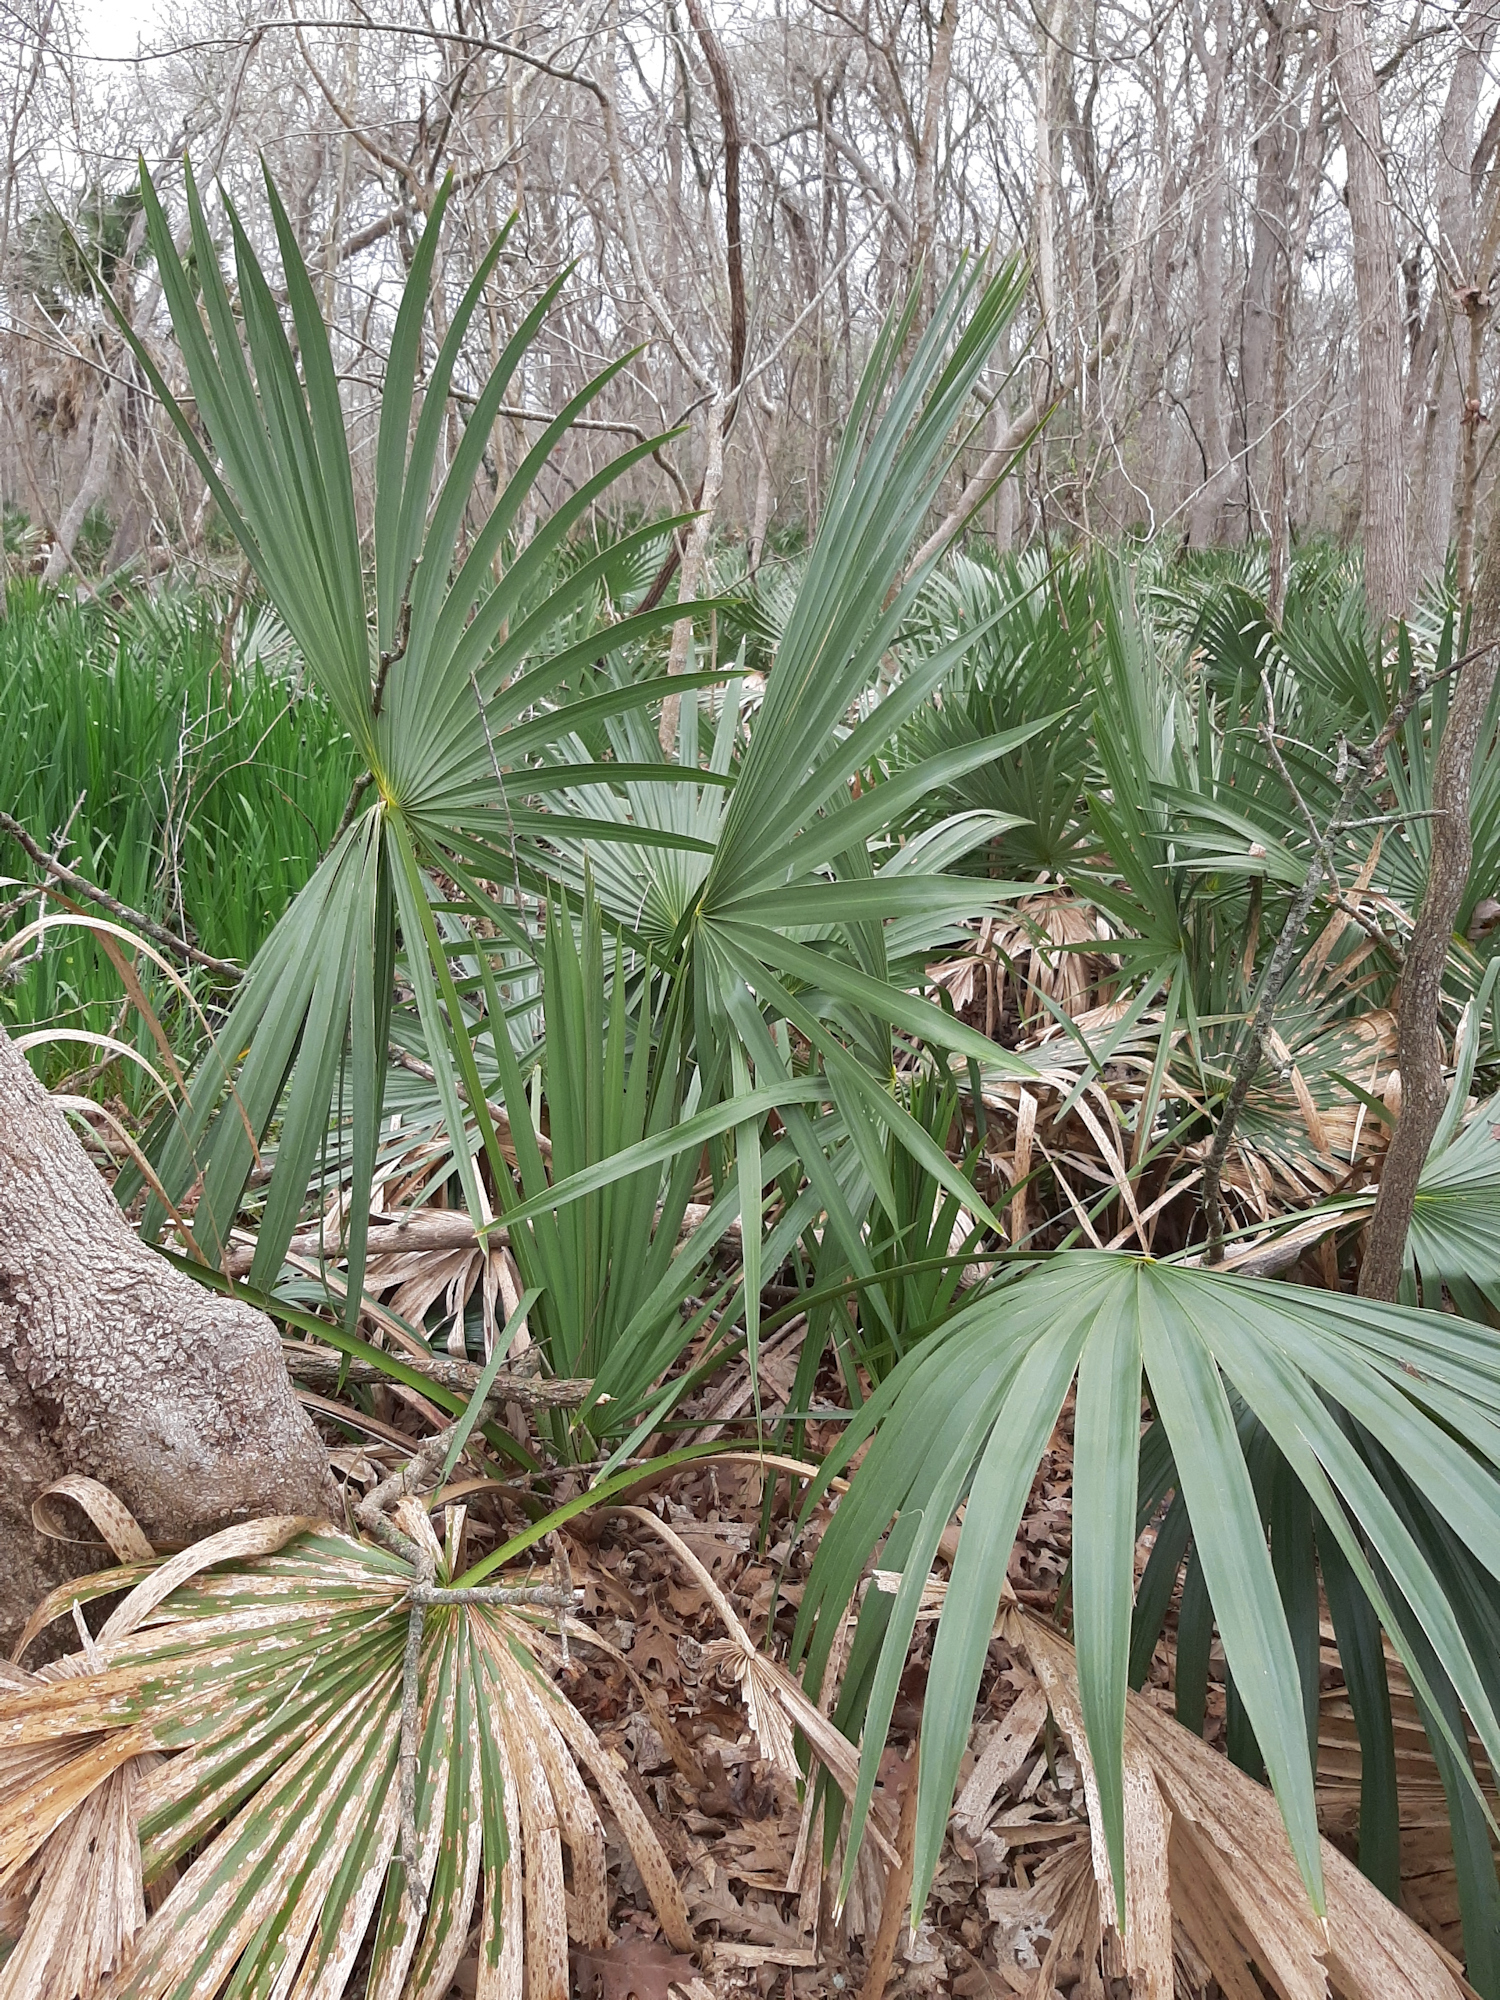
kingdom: Plantae
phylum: Tracheophyta
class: Liliopsida
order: Arecales
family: Arecaceae
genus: Sabal
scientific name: Sabal minor
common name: Dwarf palmetto
